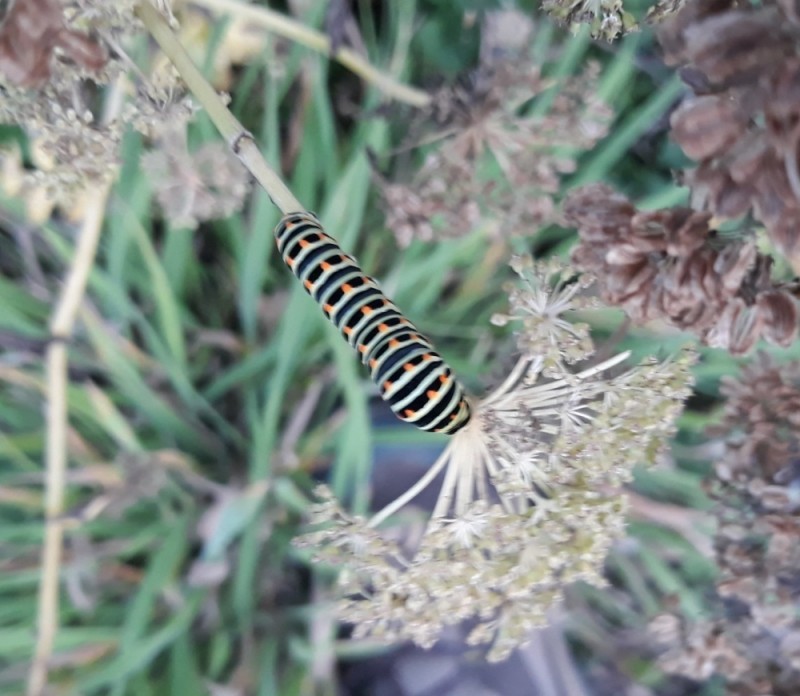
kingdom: Animalia
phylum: Arthropoda
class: Insecta
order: Lepidoptera
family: Papilionidae
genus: Papilio
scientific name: Papilio machaon
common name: Swallowtail
